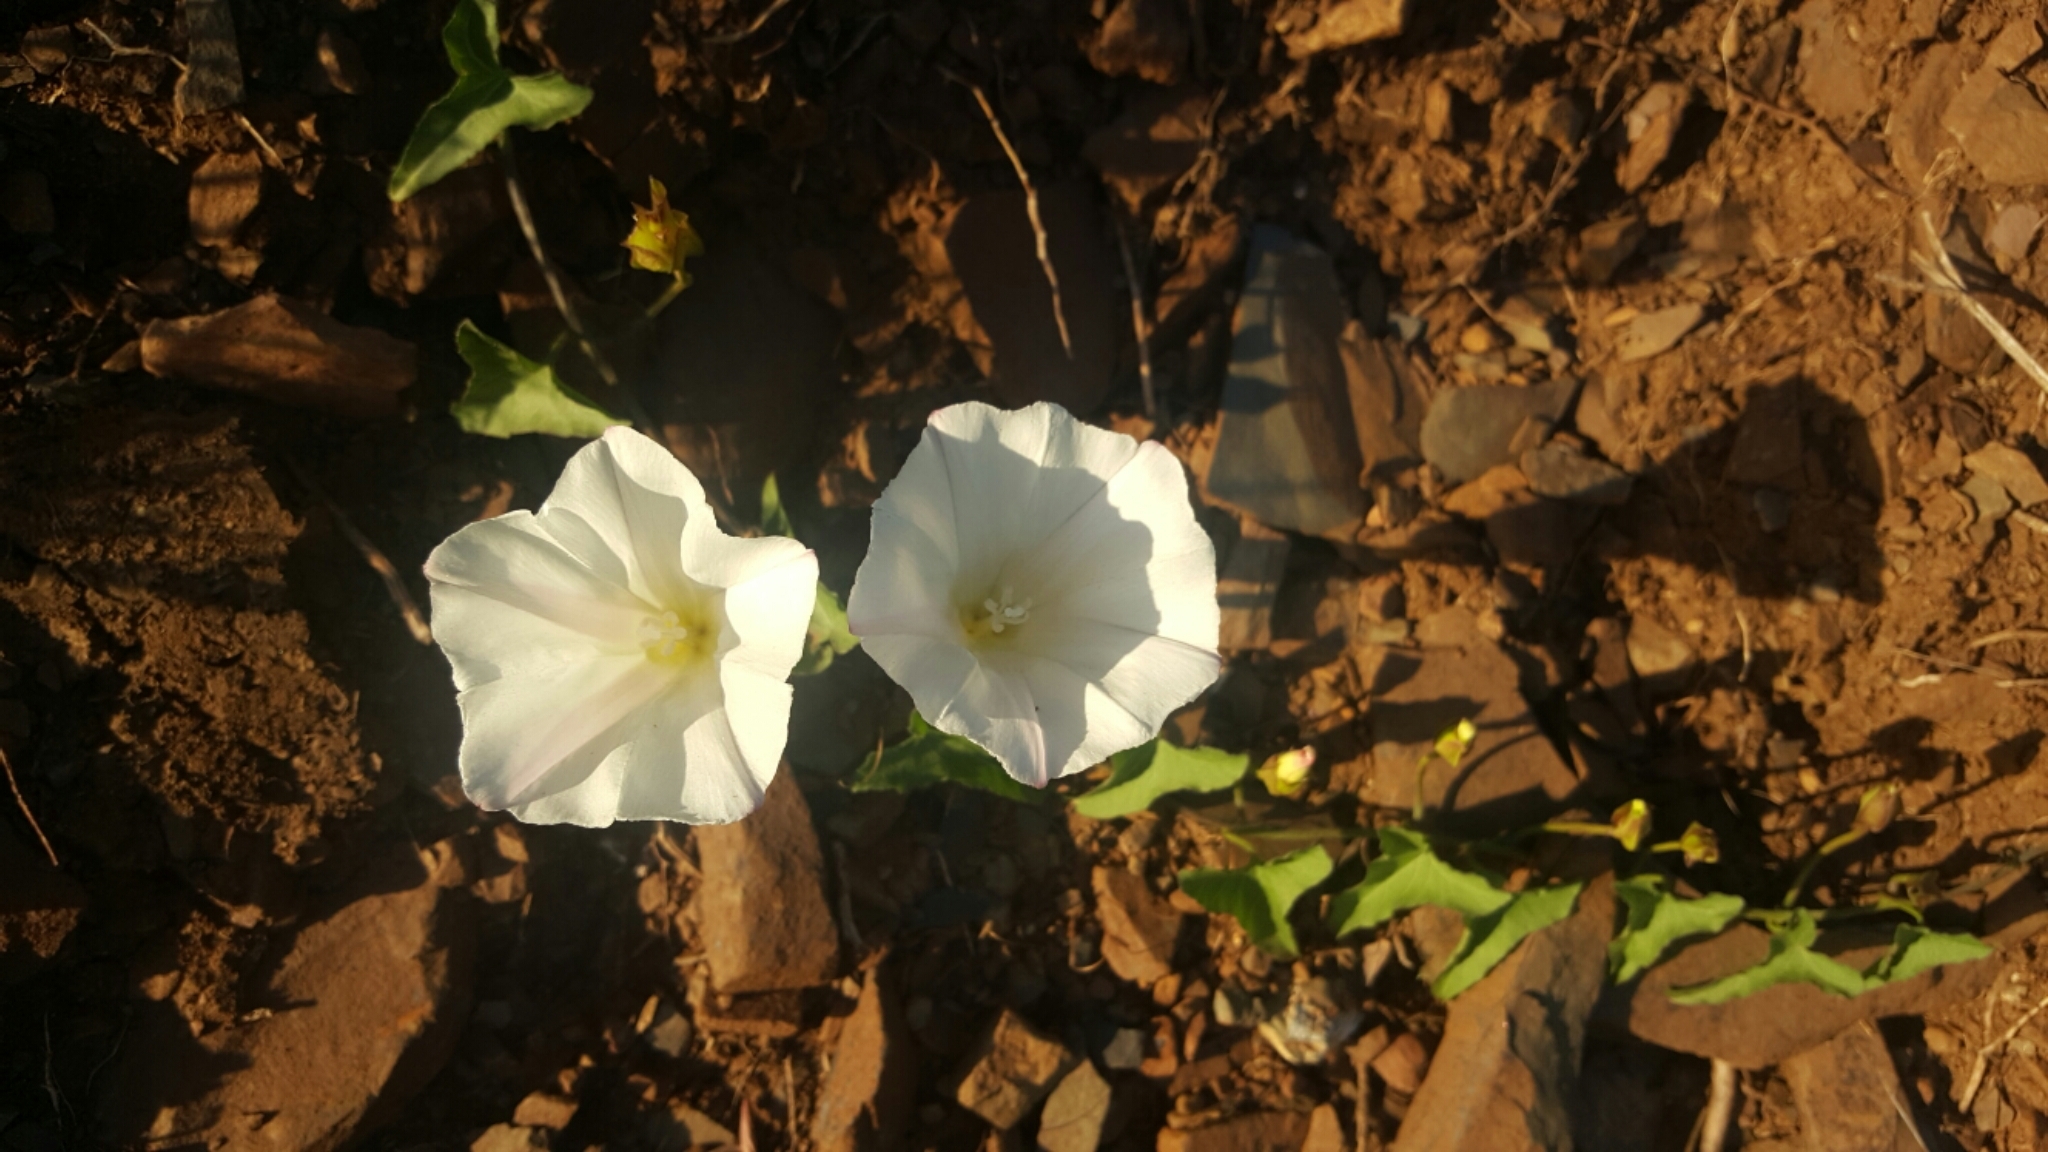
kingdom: Plantae
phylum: Tracheophyta
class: Magnoliopsida
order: Solanales
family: Convolvulaceae
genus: Calystegia
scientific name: Calystegia macrostegia
